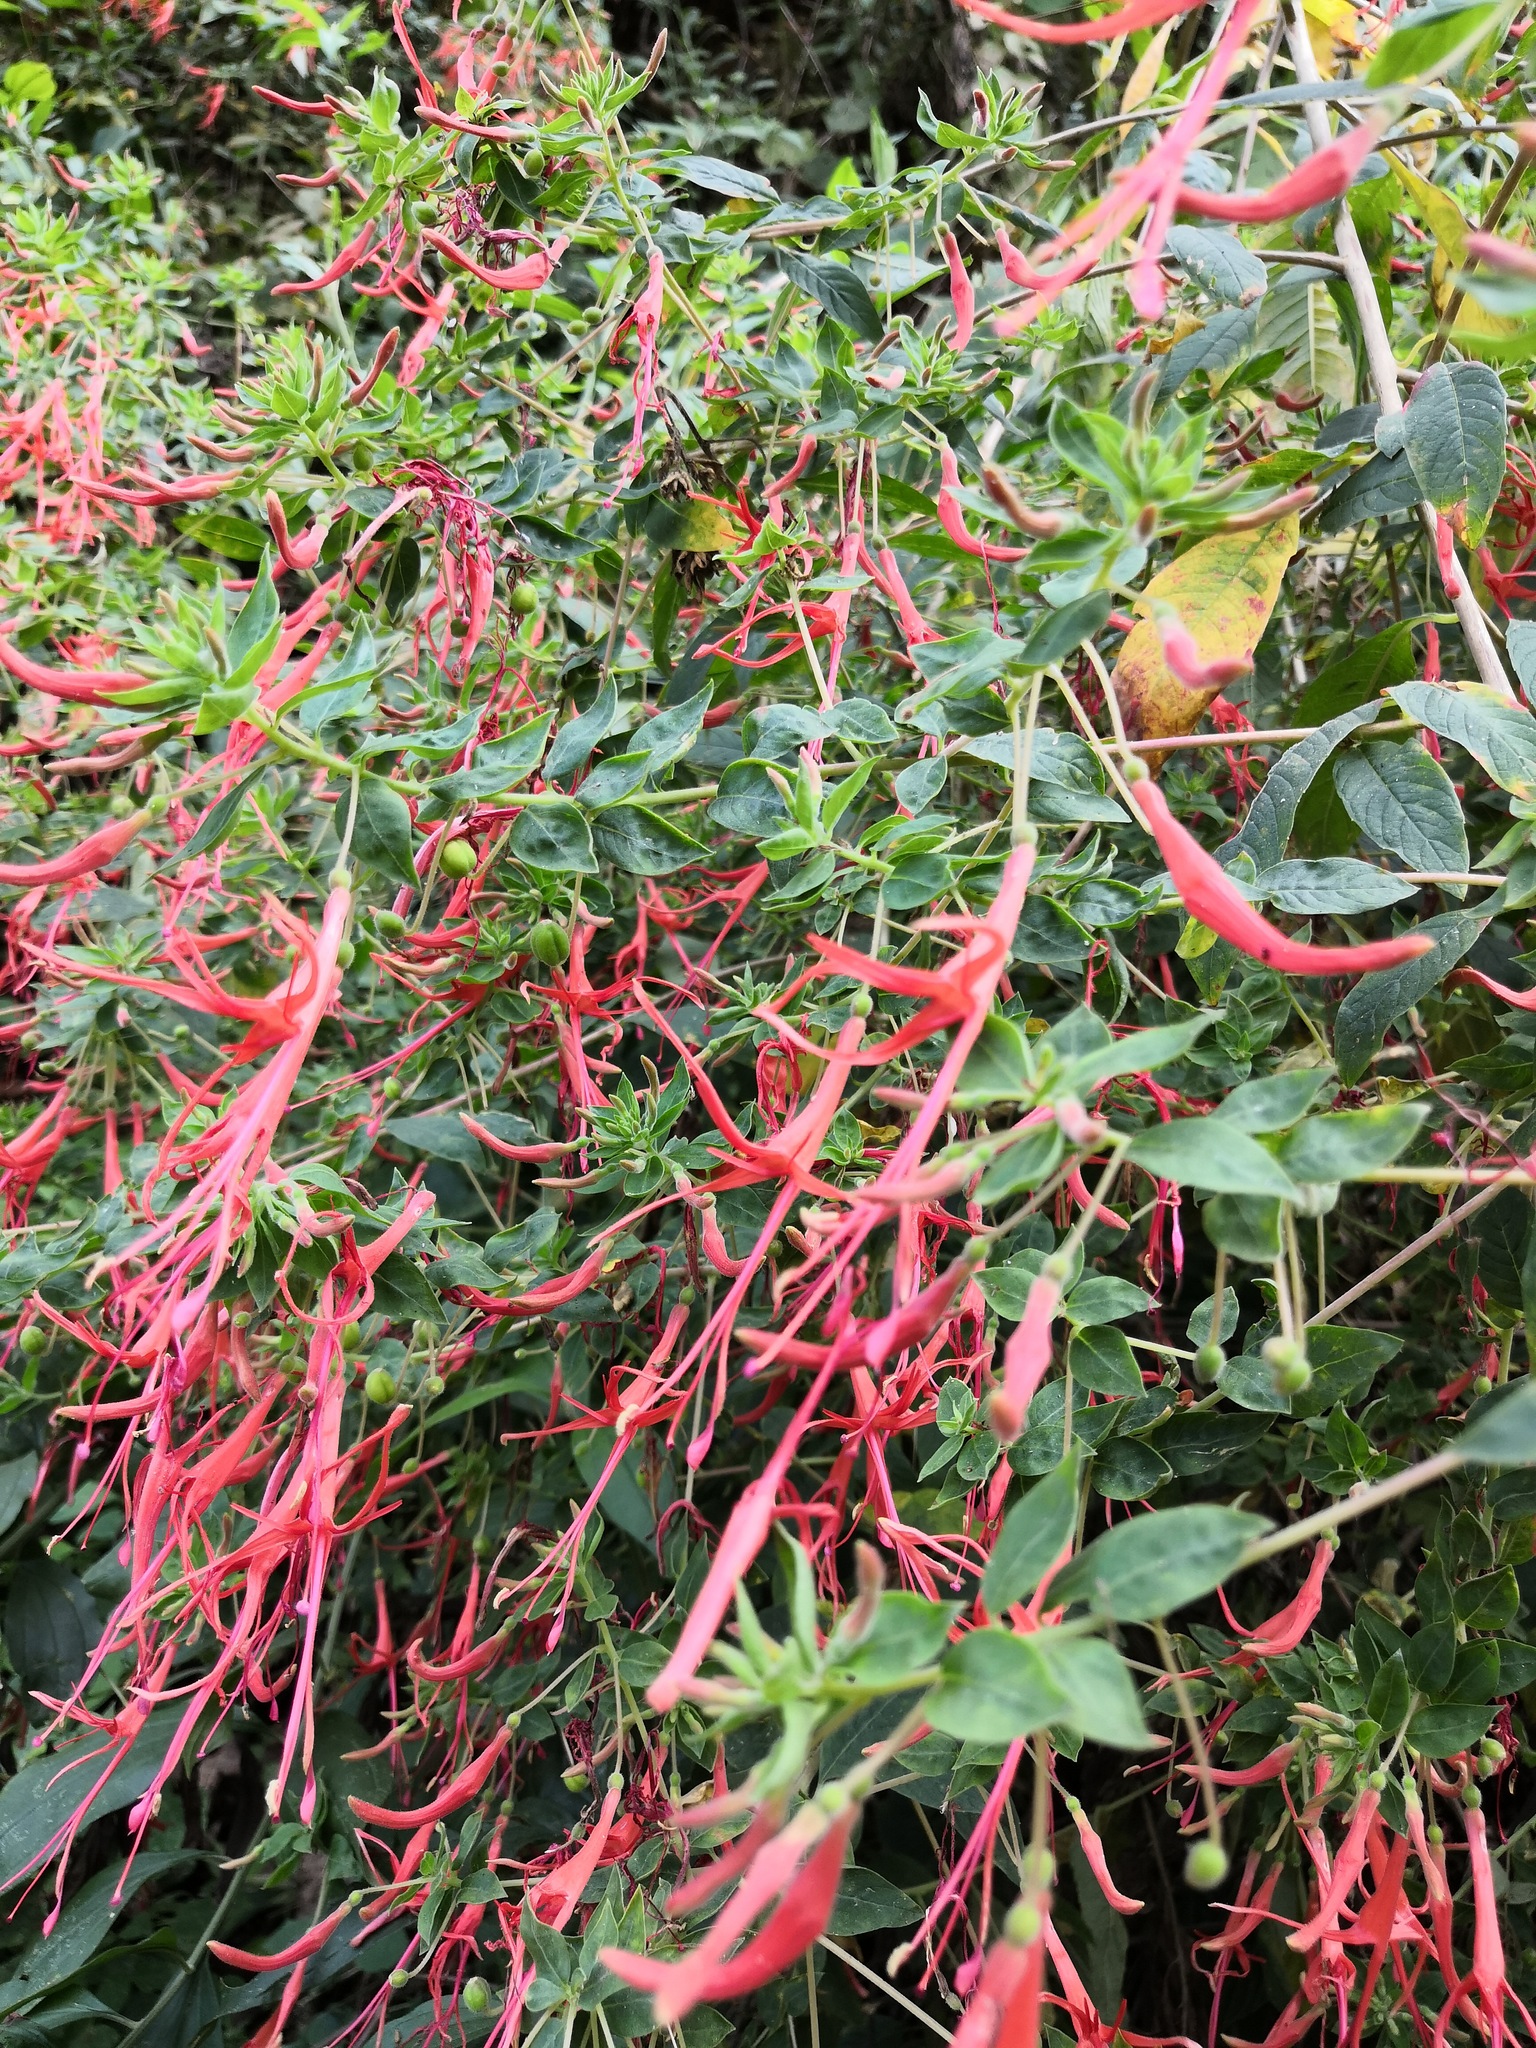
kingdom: Plantae
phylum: Tracheophyta
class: Magnoliopsida
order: Myrtales
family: Onagraceae
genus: Lopezia
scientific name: Lopezia semeiandra
